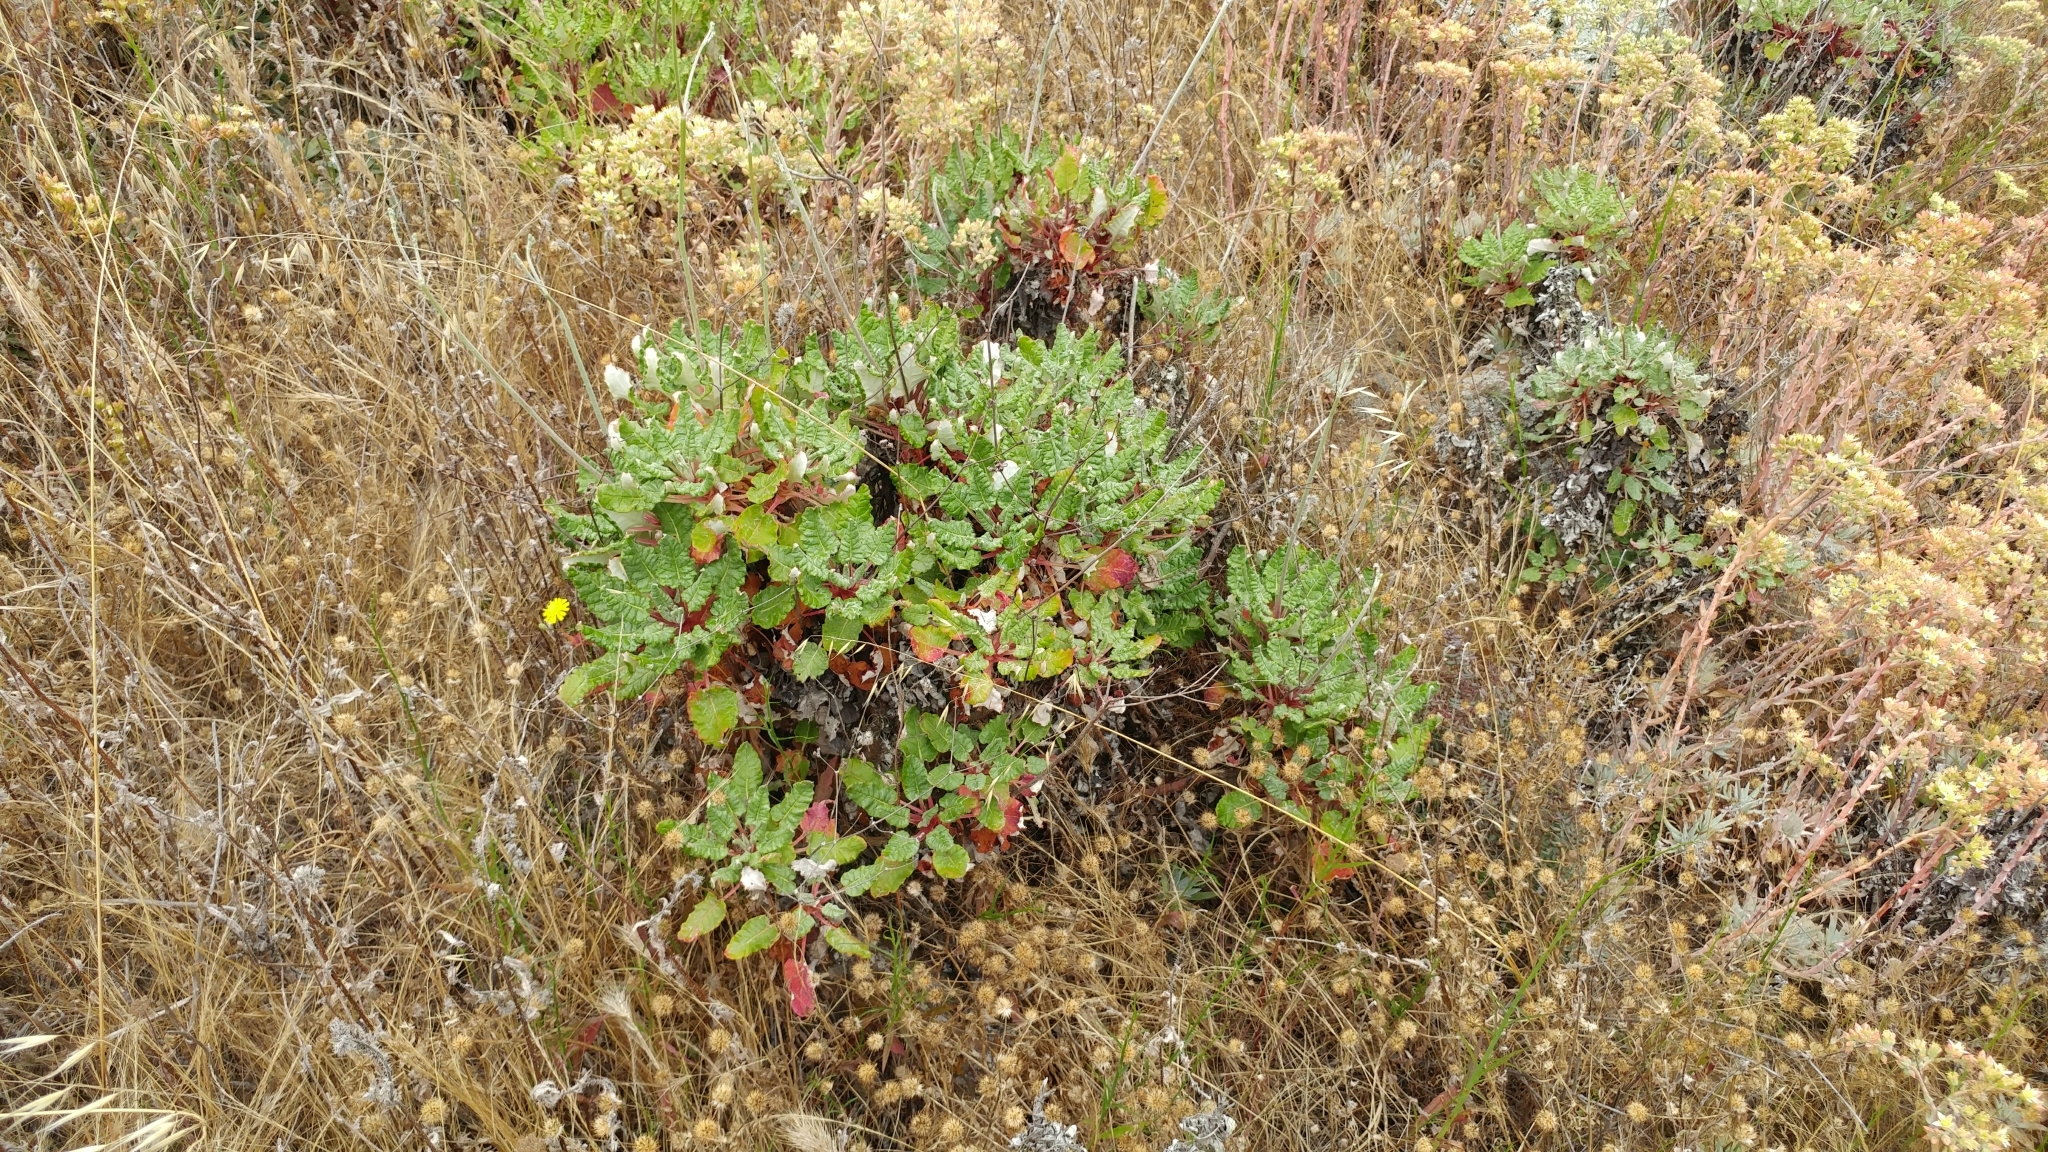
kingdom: Plantae
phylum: Tracheophyta
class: Magnoliopsida
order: Caryophyllales
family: Polygonaceae
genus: Eriogonum
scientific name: Eriogonum grande
